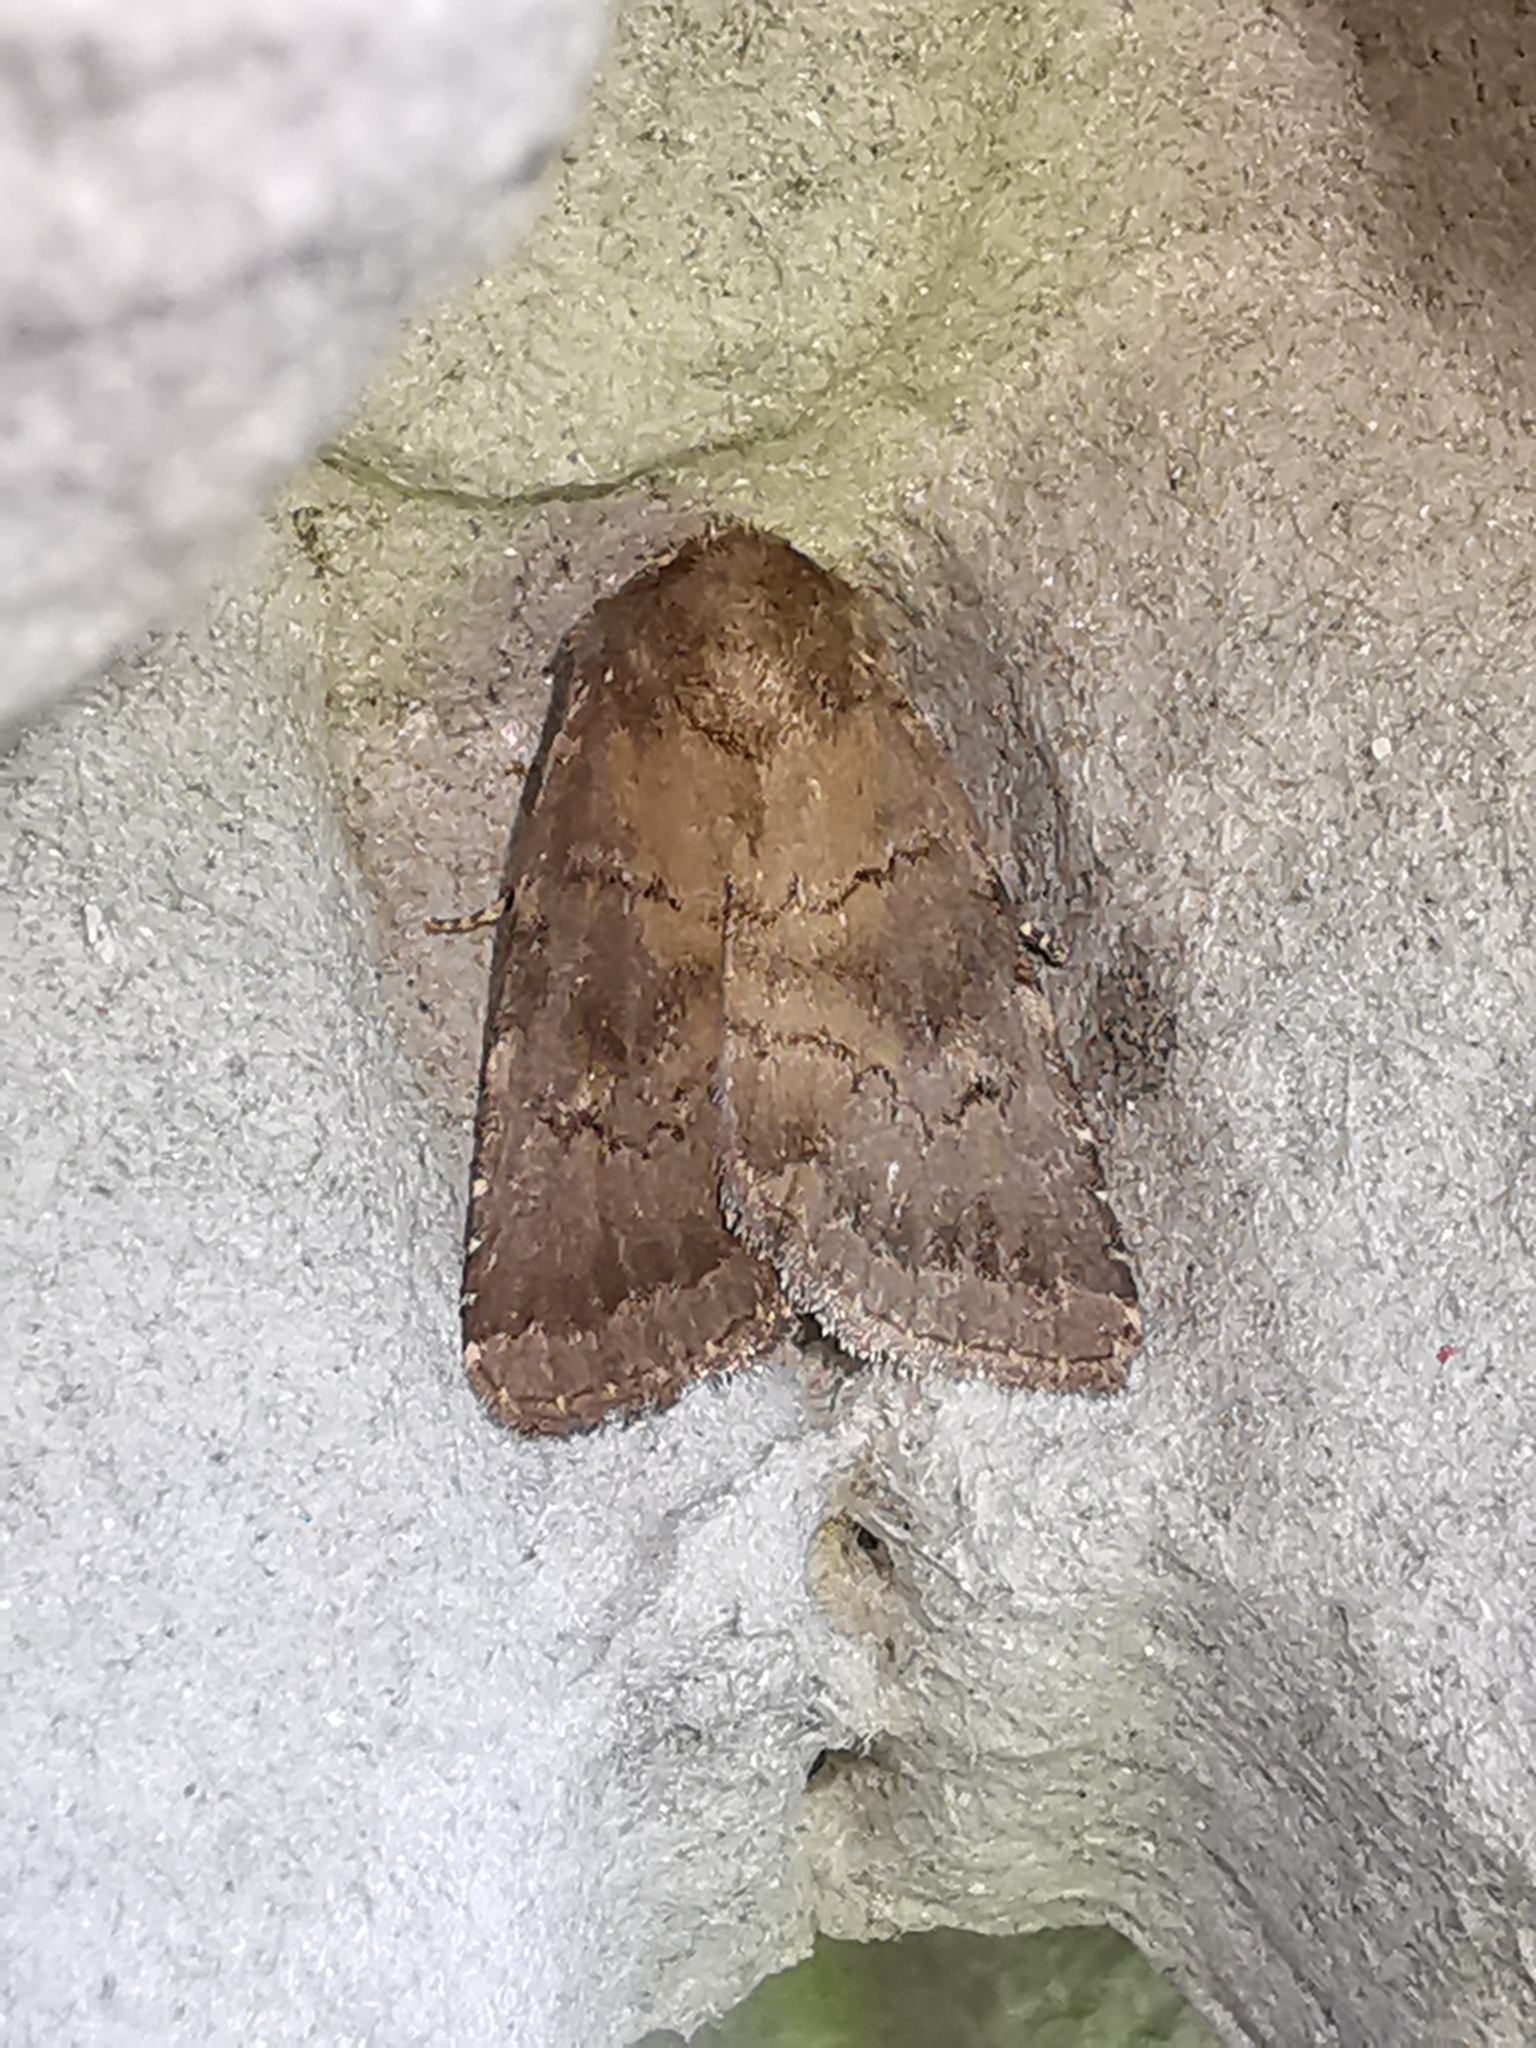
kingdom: Animalia
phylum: Arthropoda
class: Insecta
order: Lepidoptera
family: Noctuidae
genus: Charanyca
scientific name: Charanyca ferruginea
